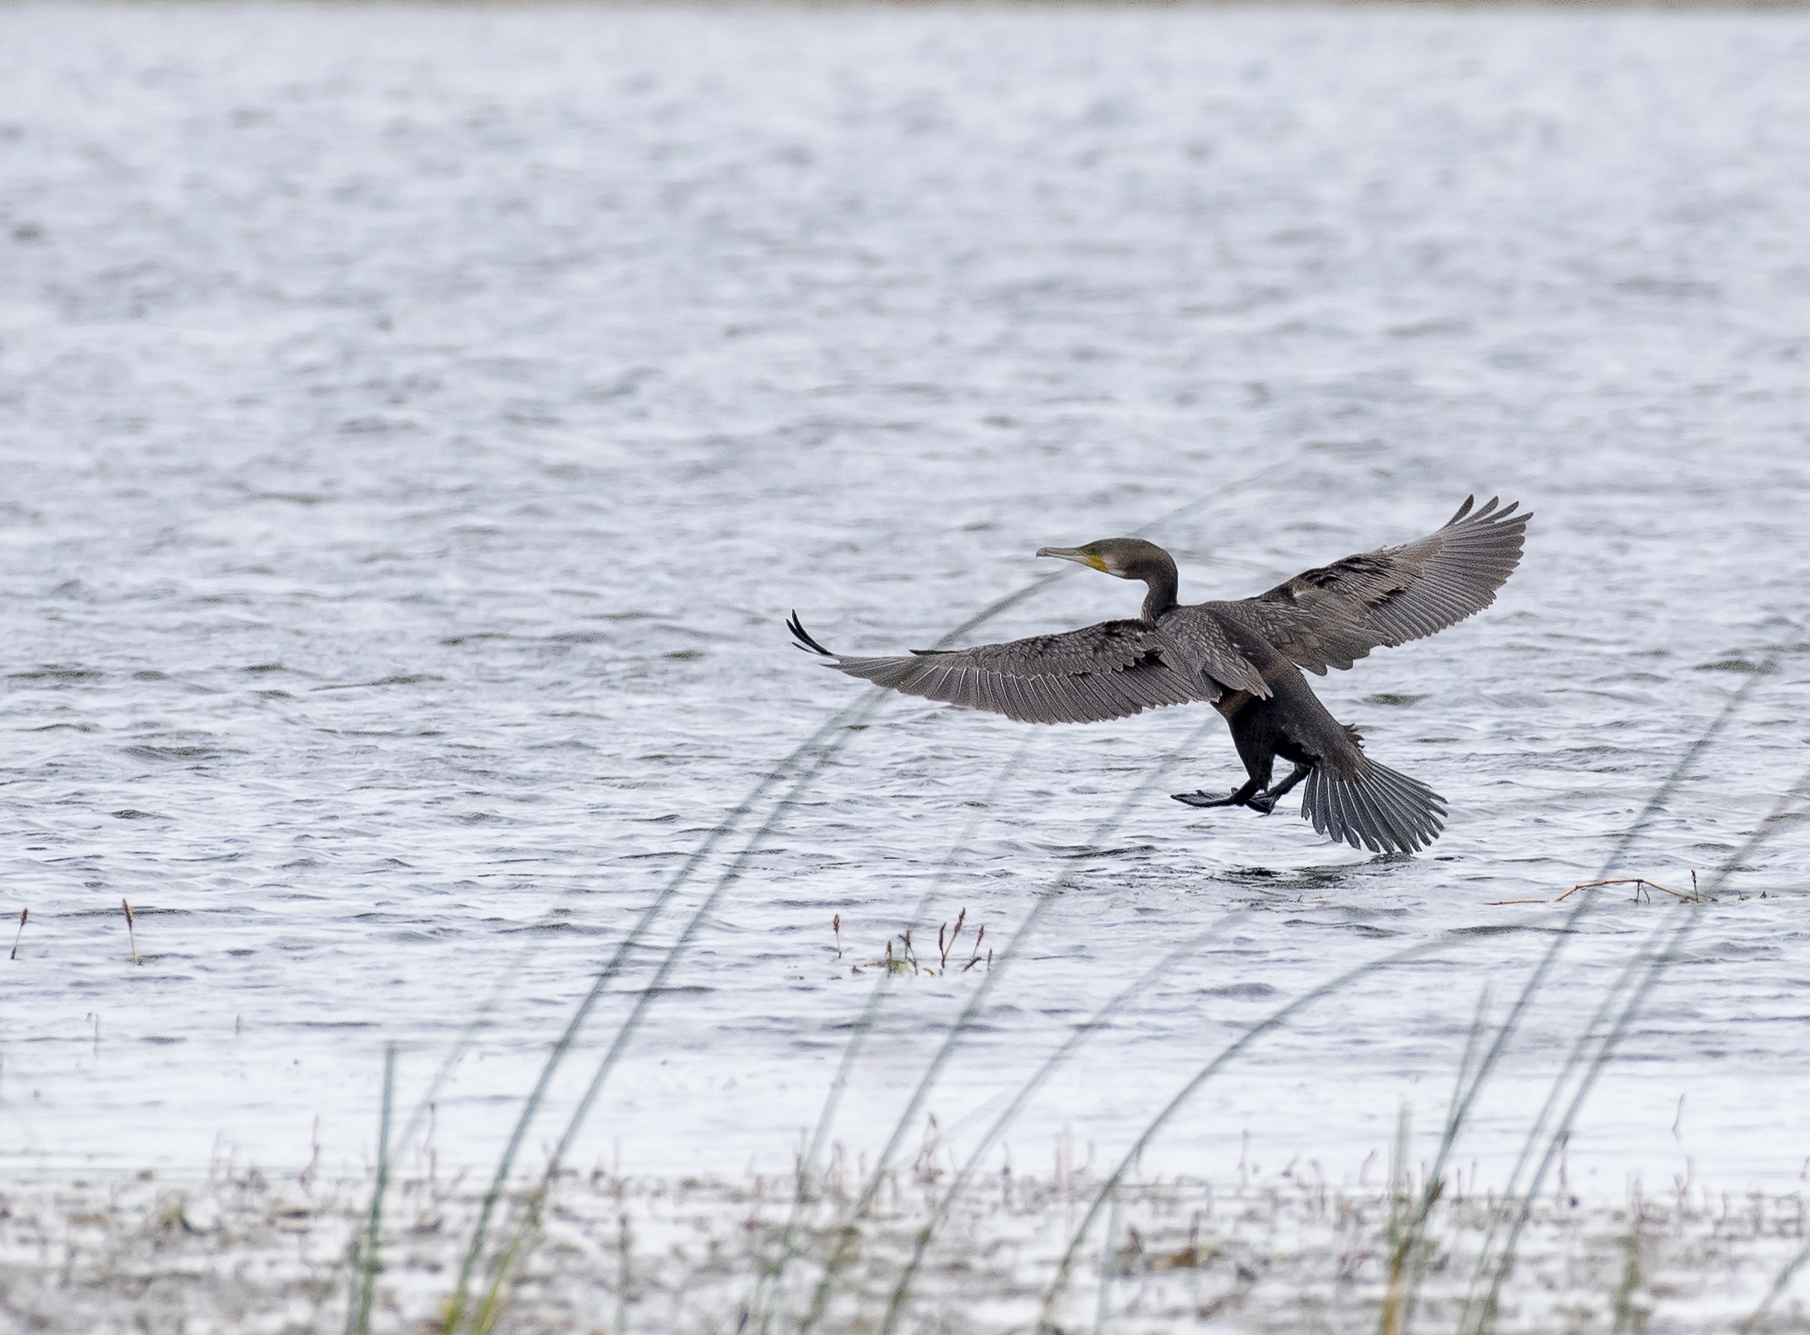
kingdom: Animalia
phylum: Chordata
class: Aves
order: Suliformes
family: Phalacrocoracidae
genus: Phalacrocorax
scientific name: Phalacrocorax carbo
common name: Great cormorant
